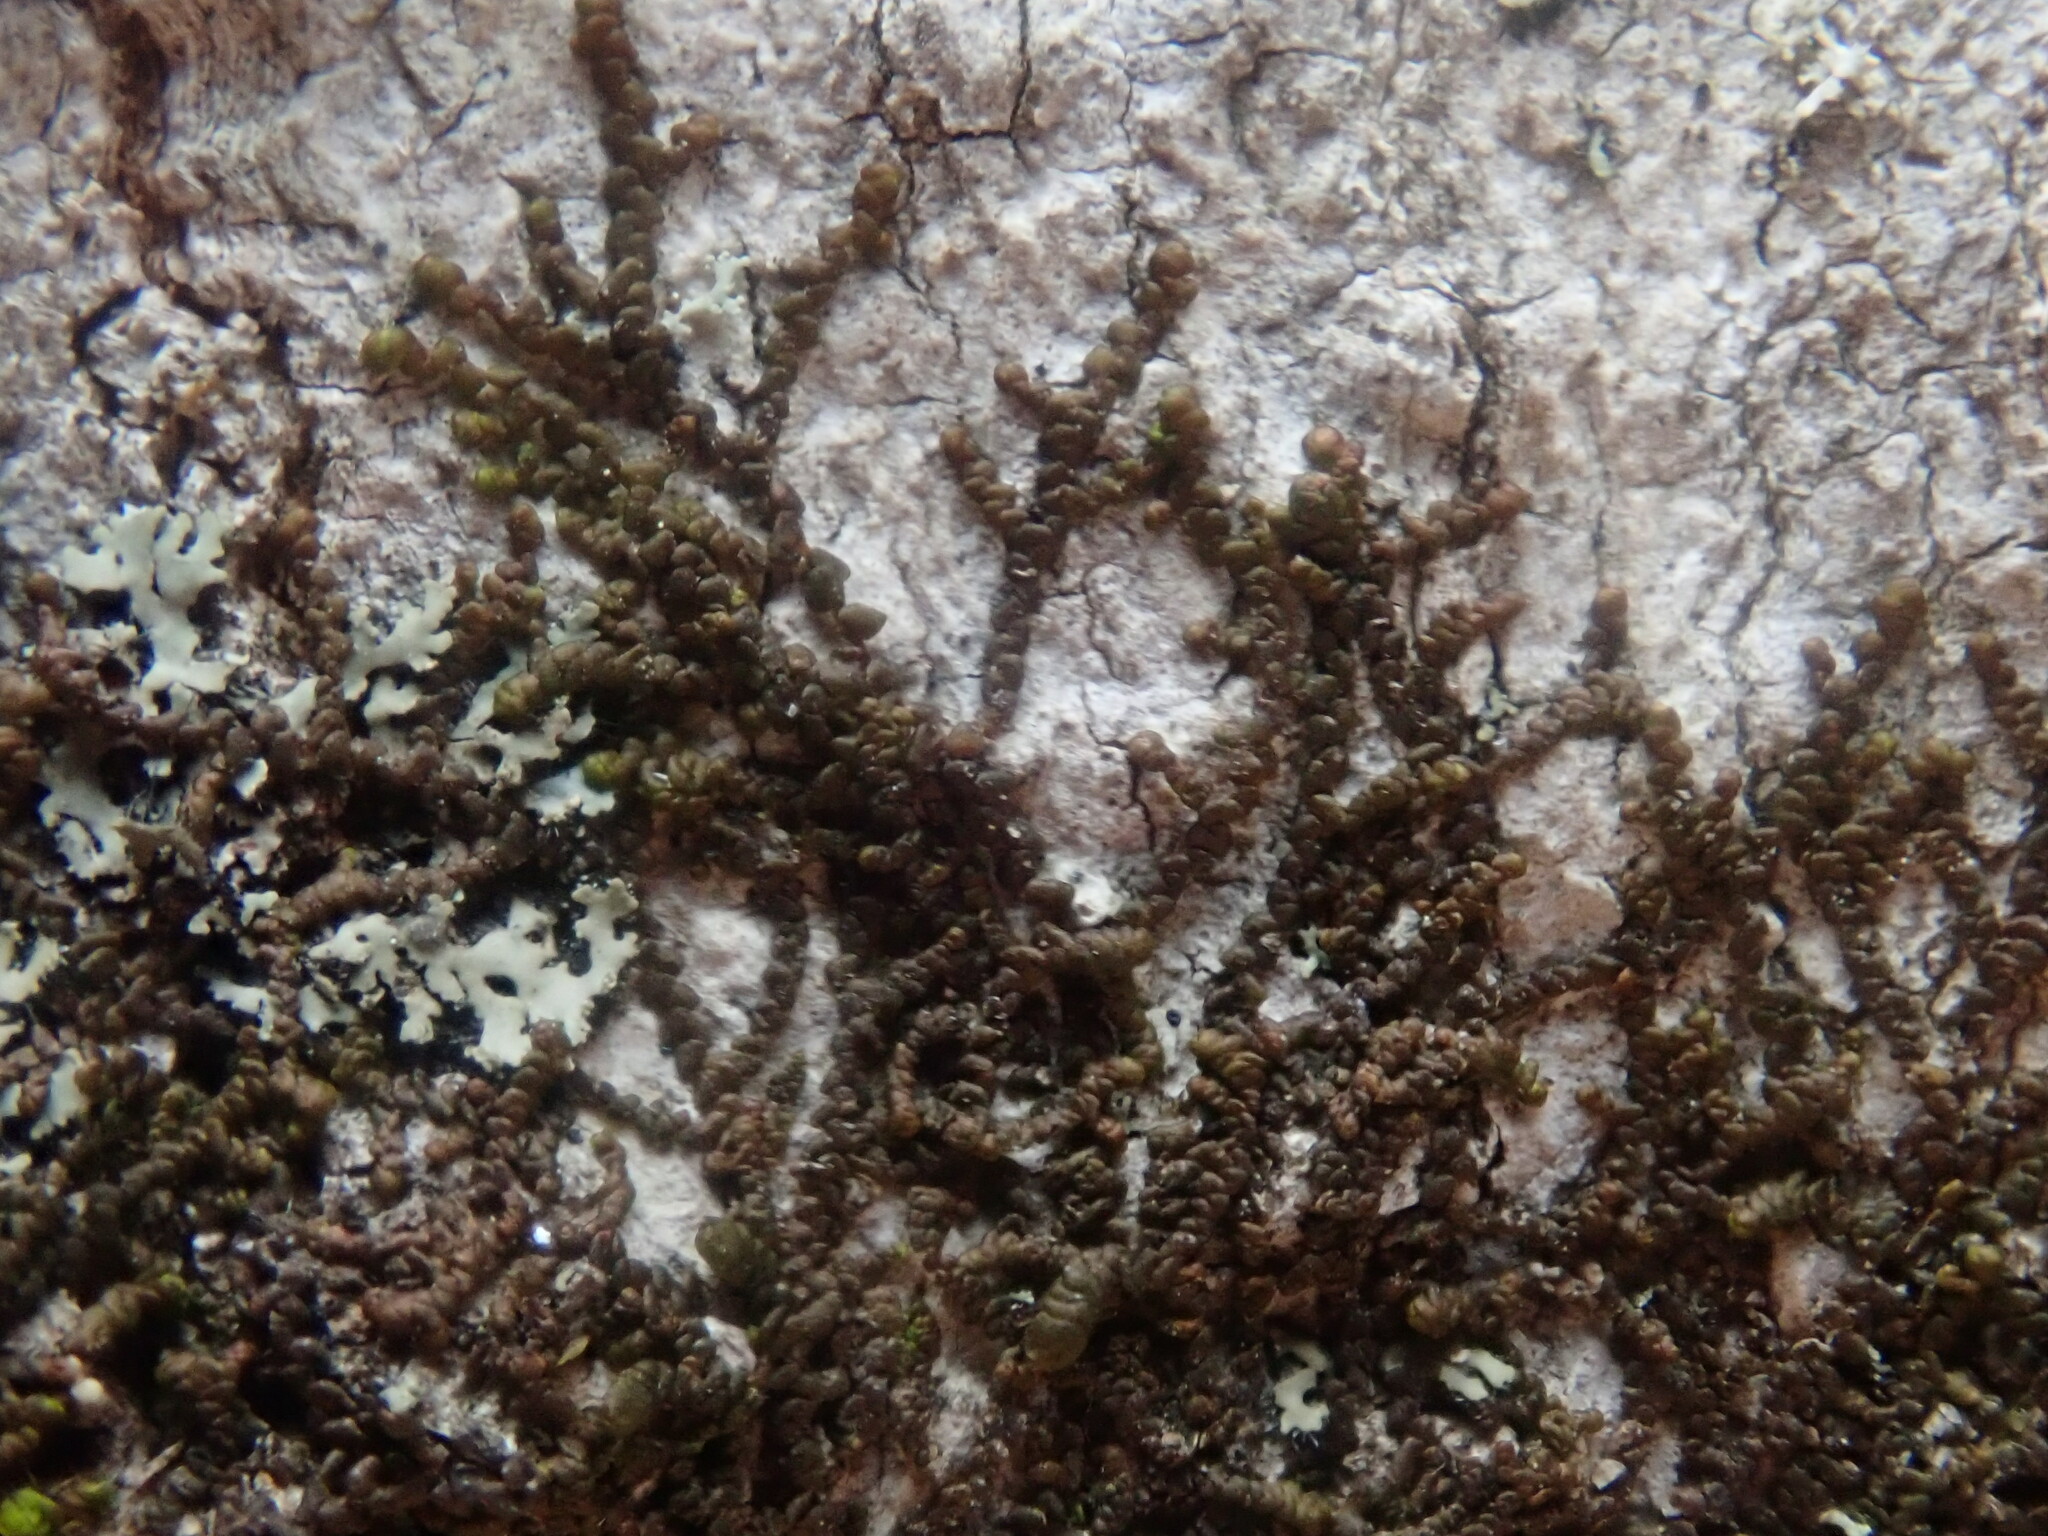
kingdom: Plantae
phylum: Marchantiophyta
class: Jungermanniopsida
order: Porellales
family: Frullaniaceae
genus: Frullania
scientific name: Frullania
